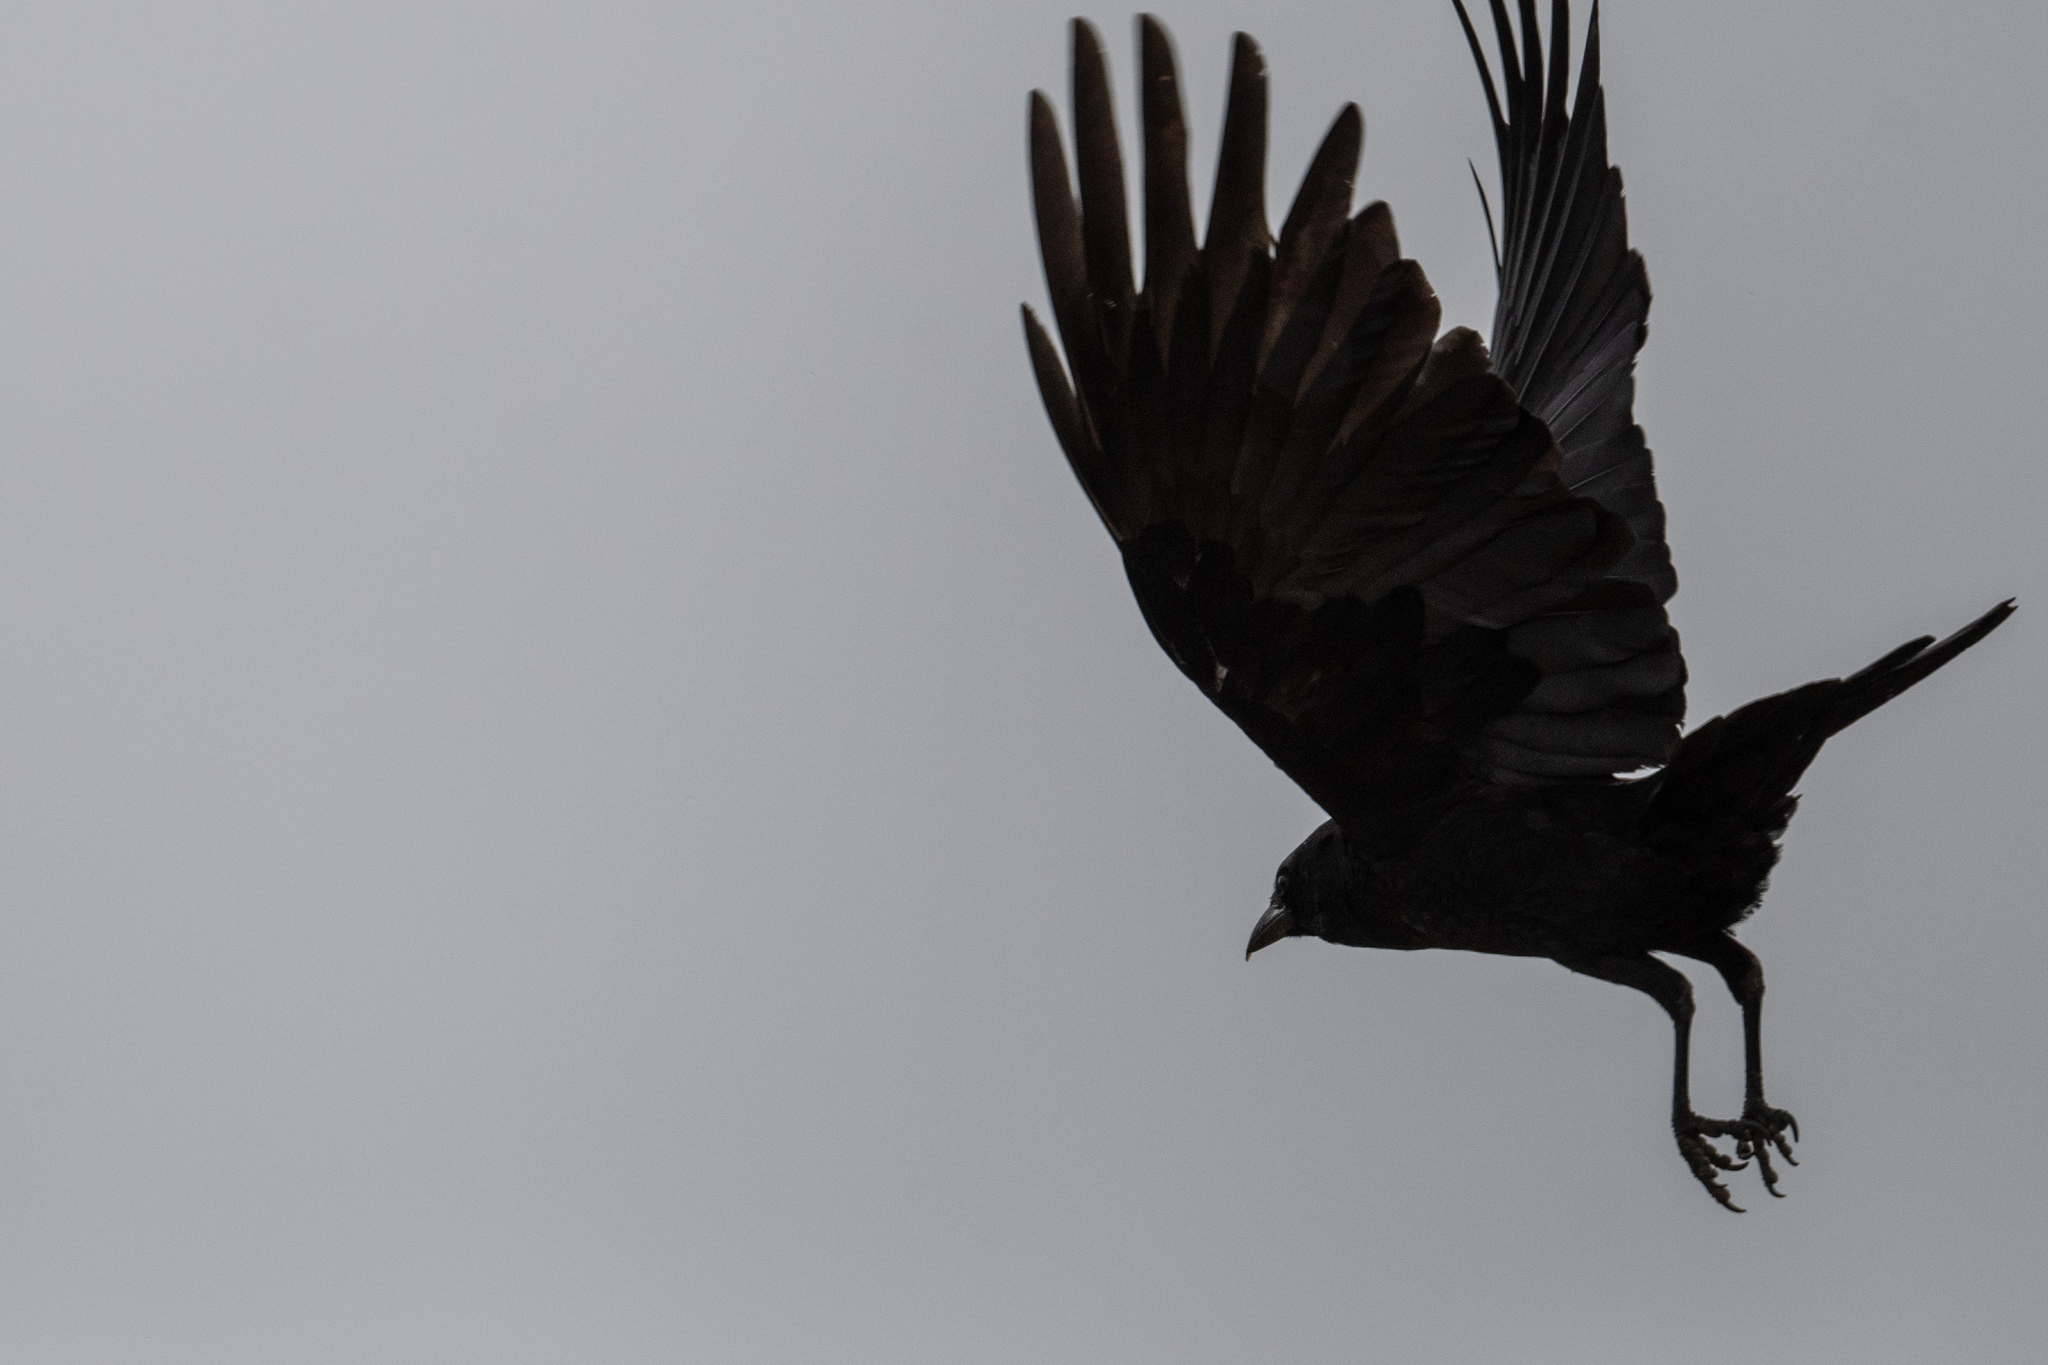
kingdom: Animalia
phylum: Chordata
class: Aves
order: Passeriformes
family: Corvidae
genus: Corvus
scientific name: Corvus brachyrhynchos
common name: American crow
